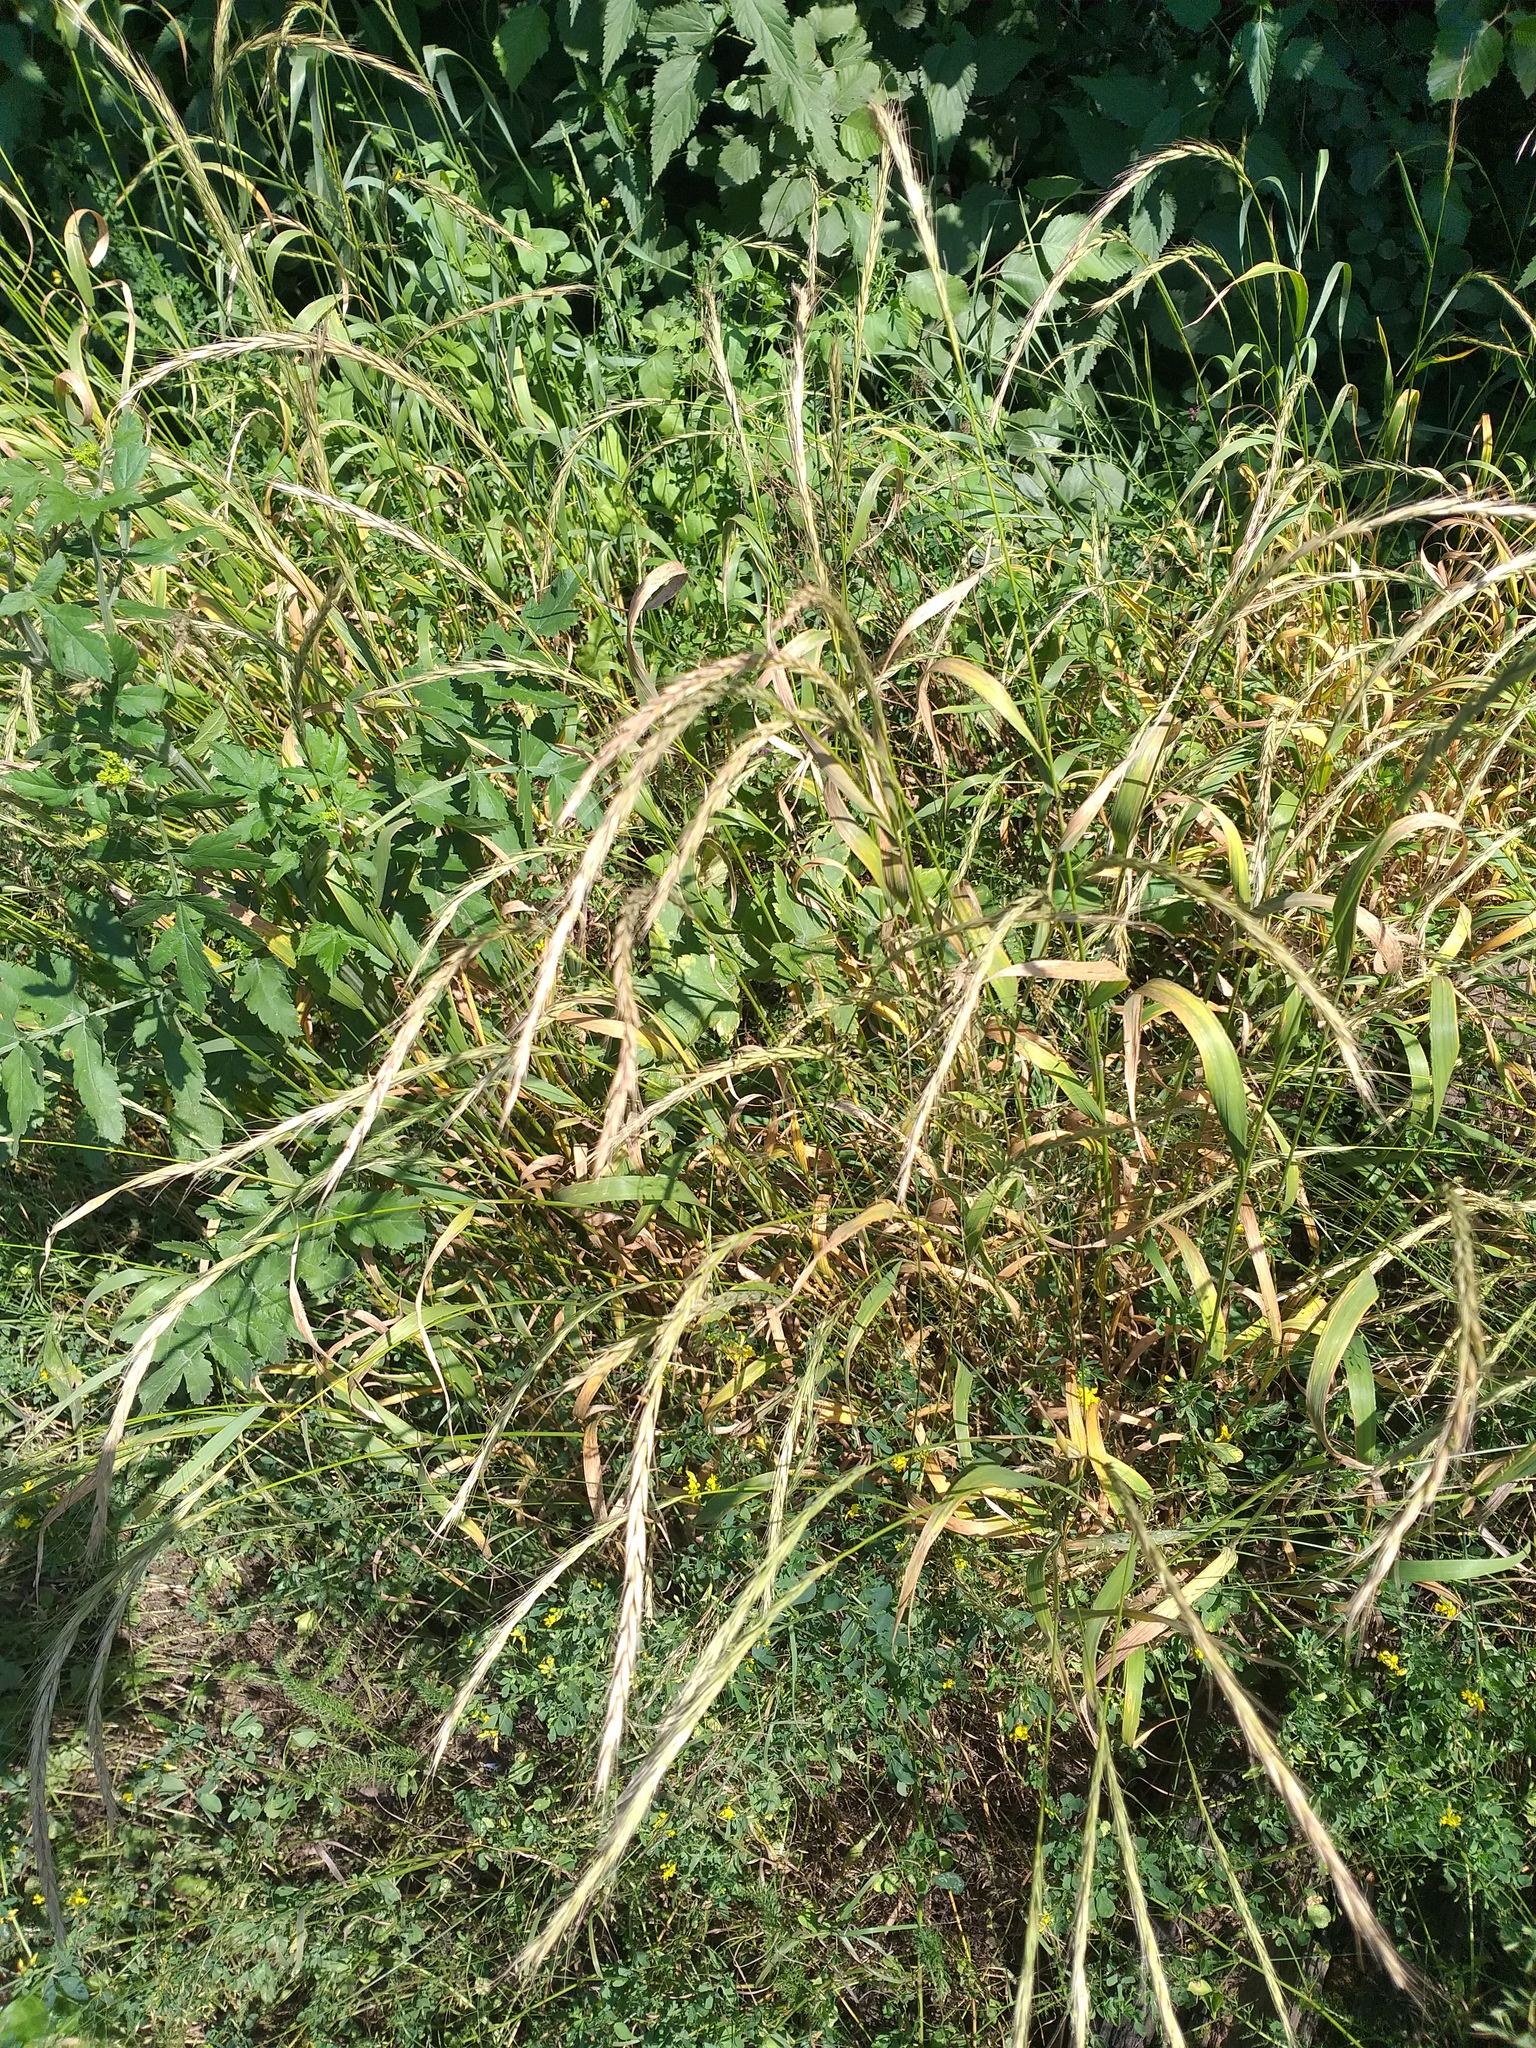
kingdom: Plantae
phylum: Tracheophyta
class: Liliopsida
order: Poales
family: Poaceae
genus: Elymus
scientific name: Elymus caninus
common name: Bearded couch
